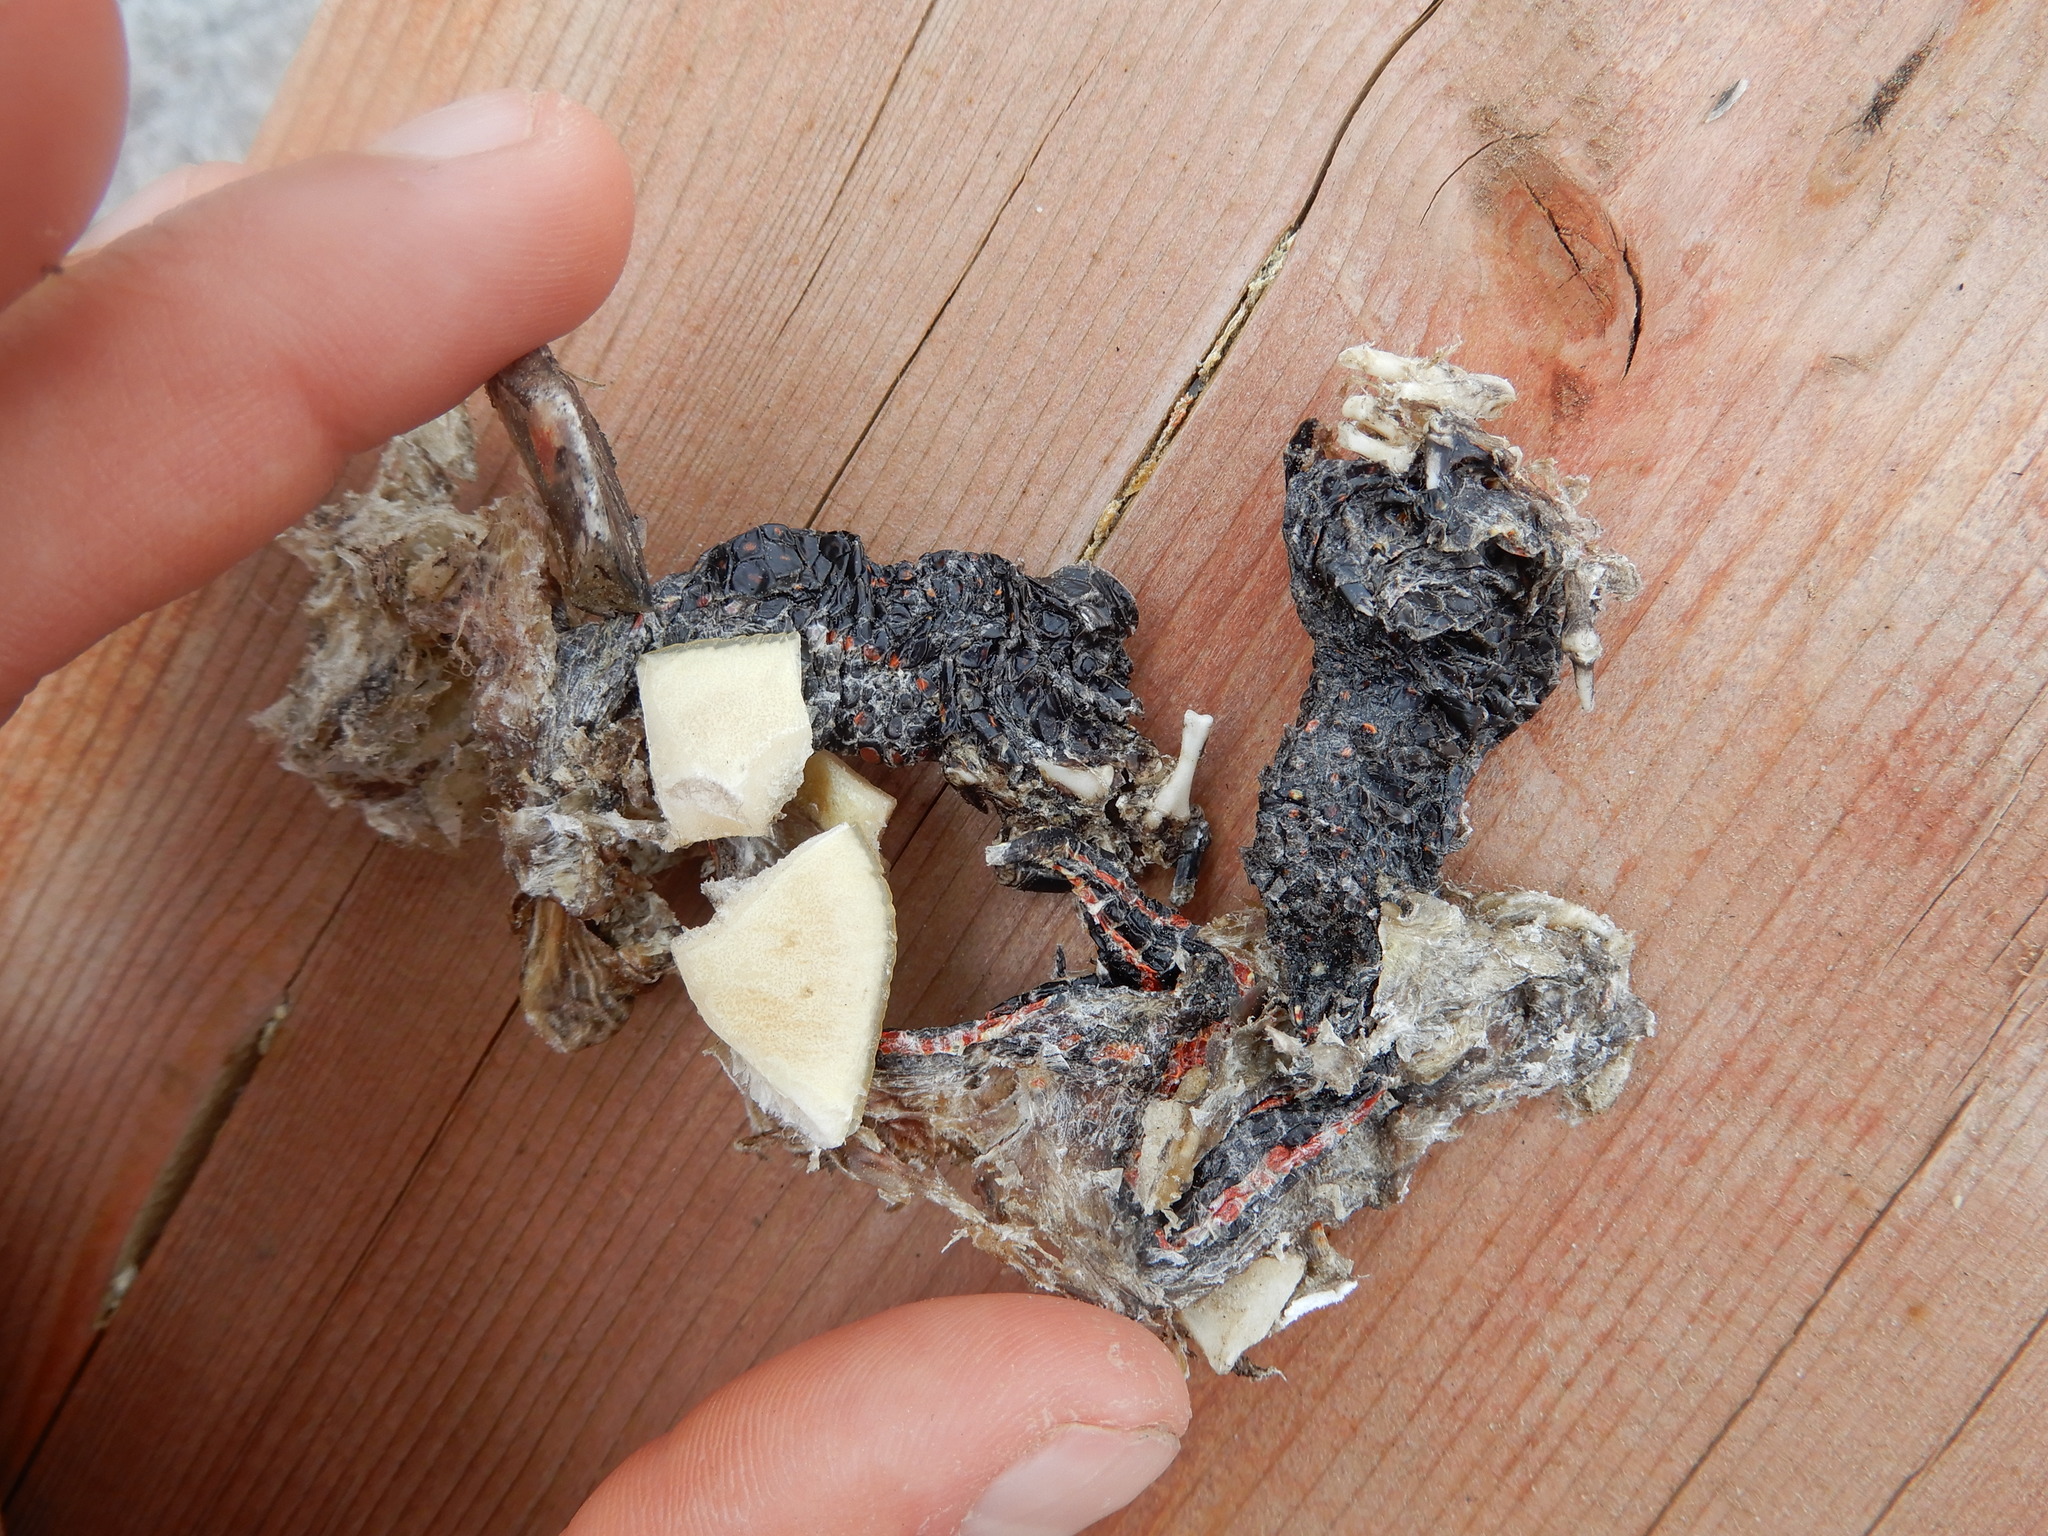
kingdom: Animalia
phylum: Chordata
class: Testudines
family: Emydidae
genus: Chrysemys
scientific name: Chrysemys picta
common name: Painted turtle
